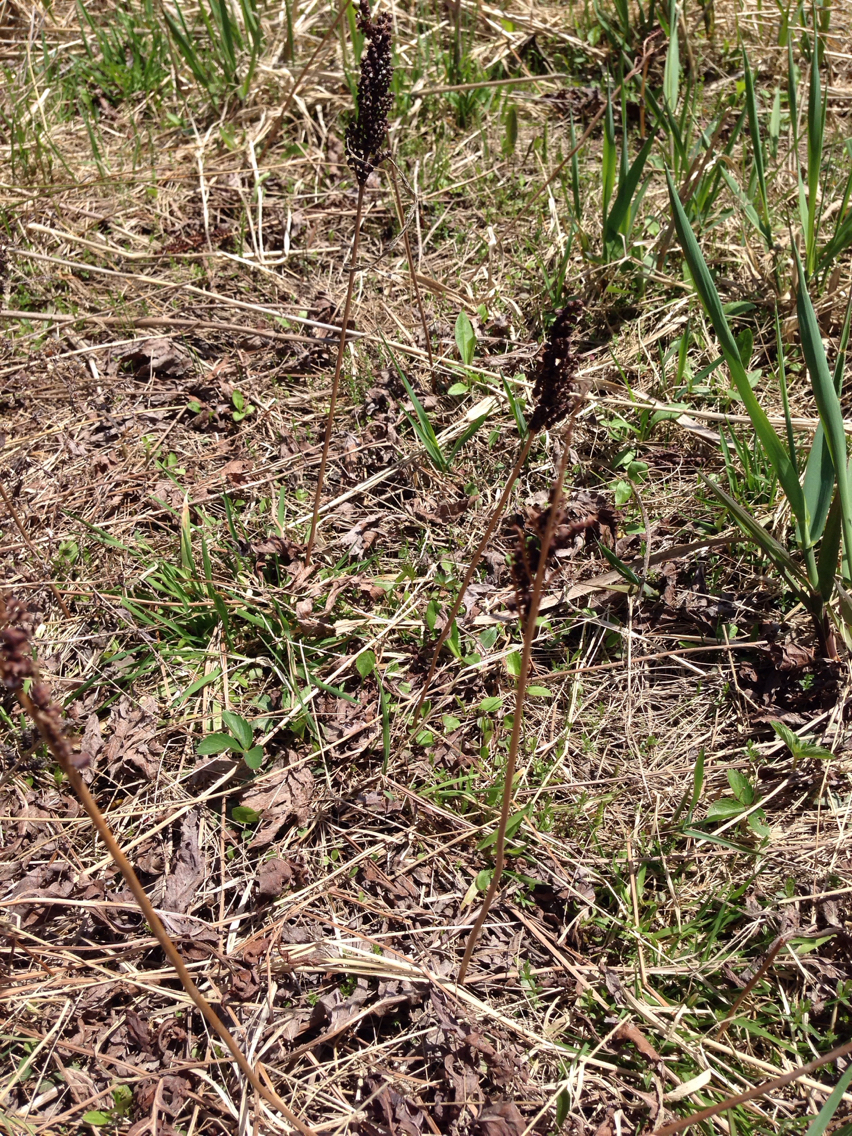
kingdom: Plantae
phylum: Tracheophyta
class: Polypodiopsida
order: Polypodiales
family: Onocleaceae
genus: Onoclea
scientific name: Onoclea sensibilis
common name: Sensitive fern
